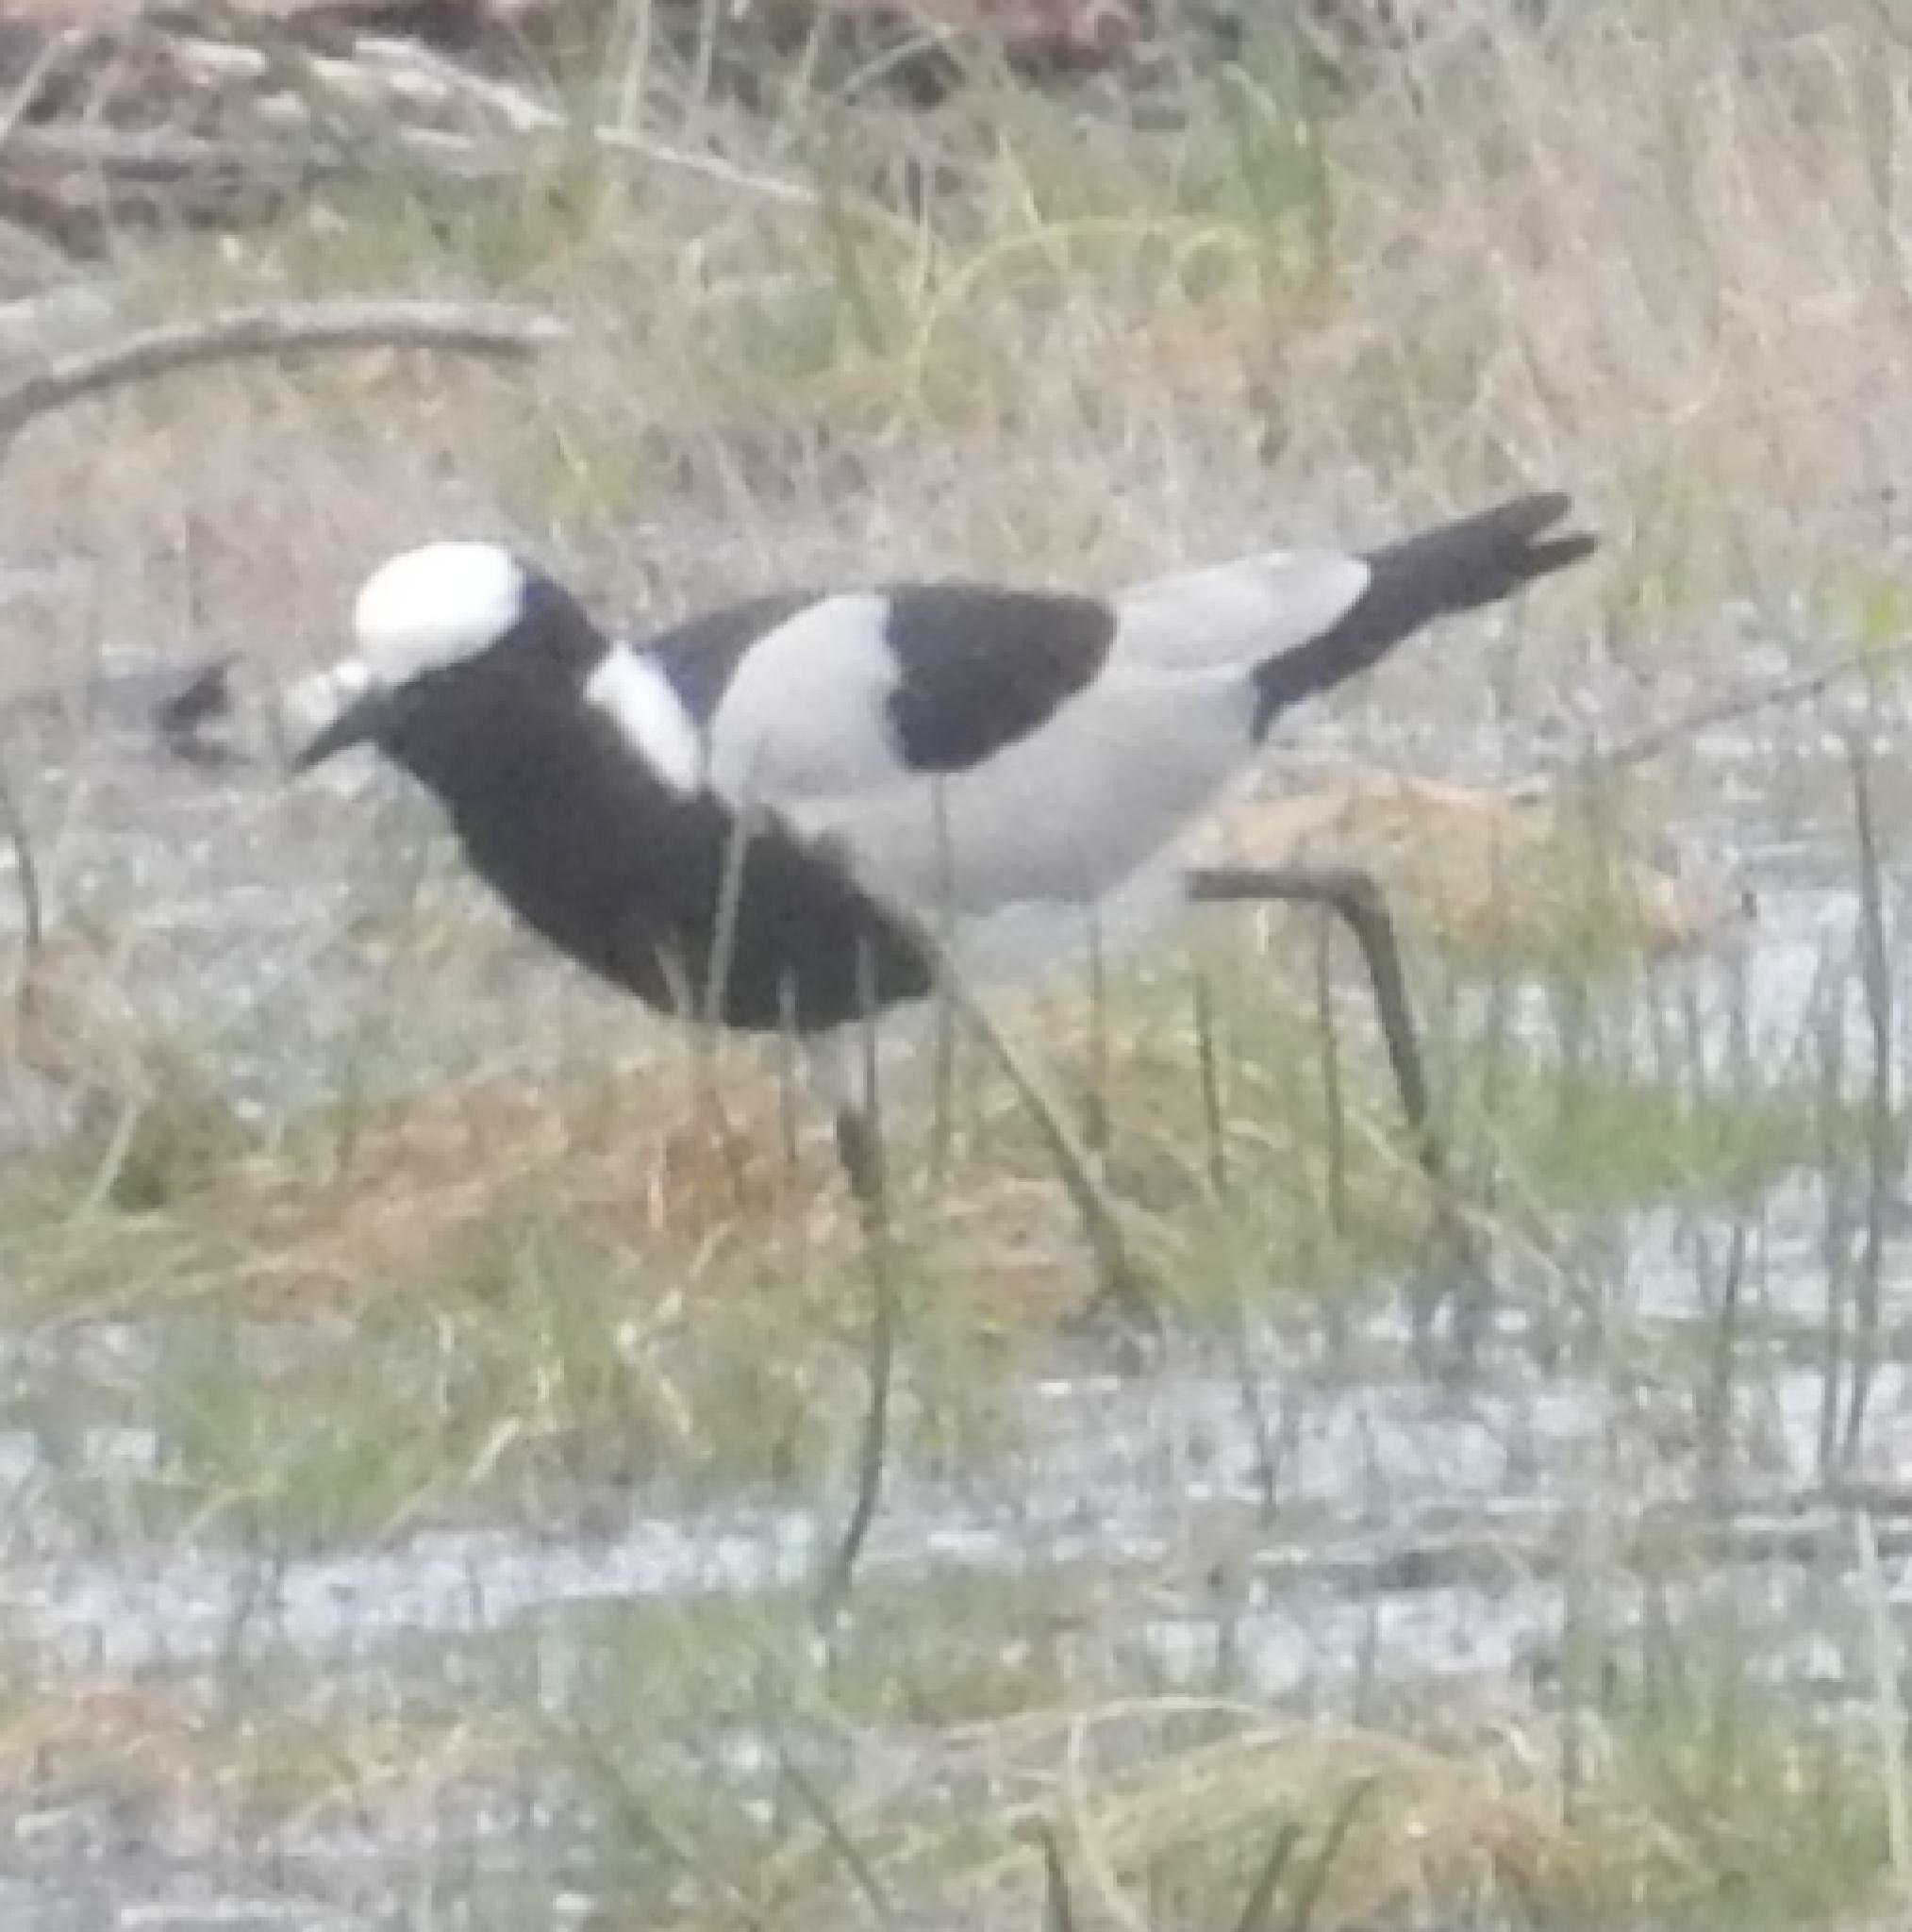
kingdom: Animalia
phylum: Chordata
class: Aves
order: Charadriiformes
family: Charadriidae
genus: Vanellus
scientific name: Vanellus armatus
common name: Blacksmith lapwing
